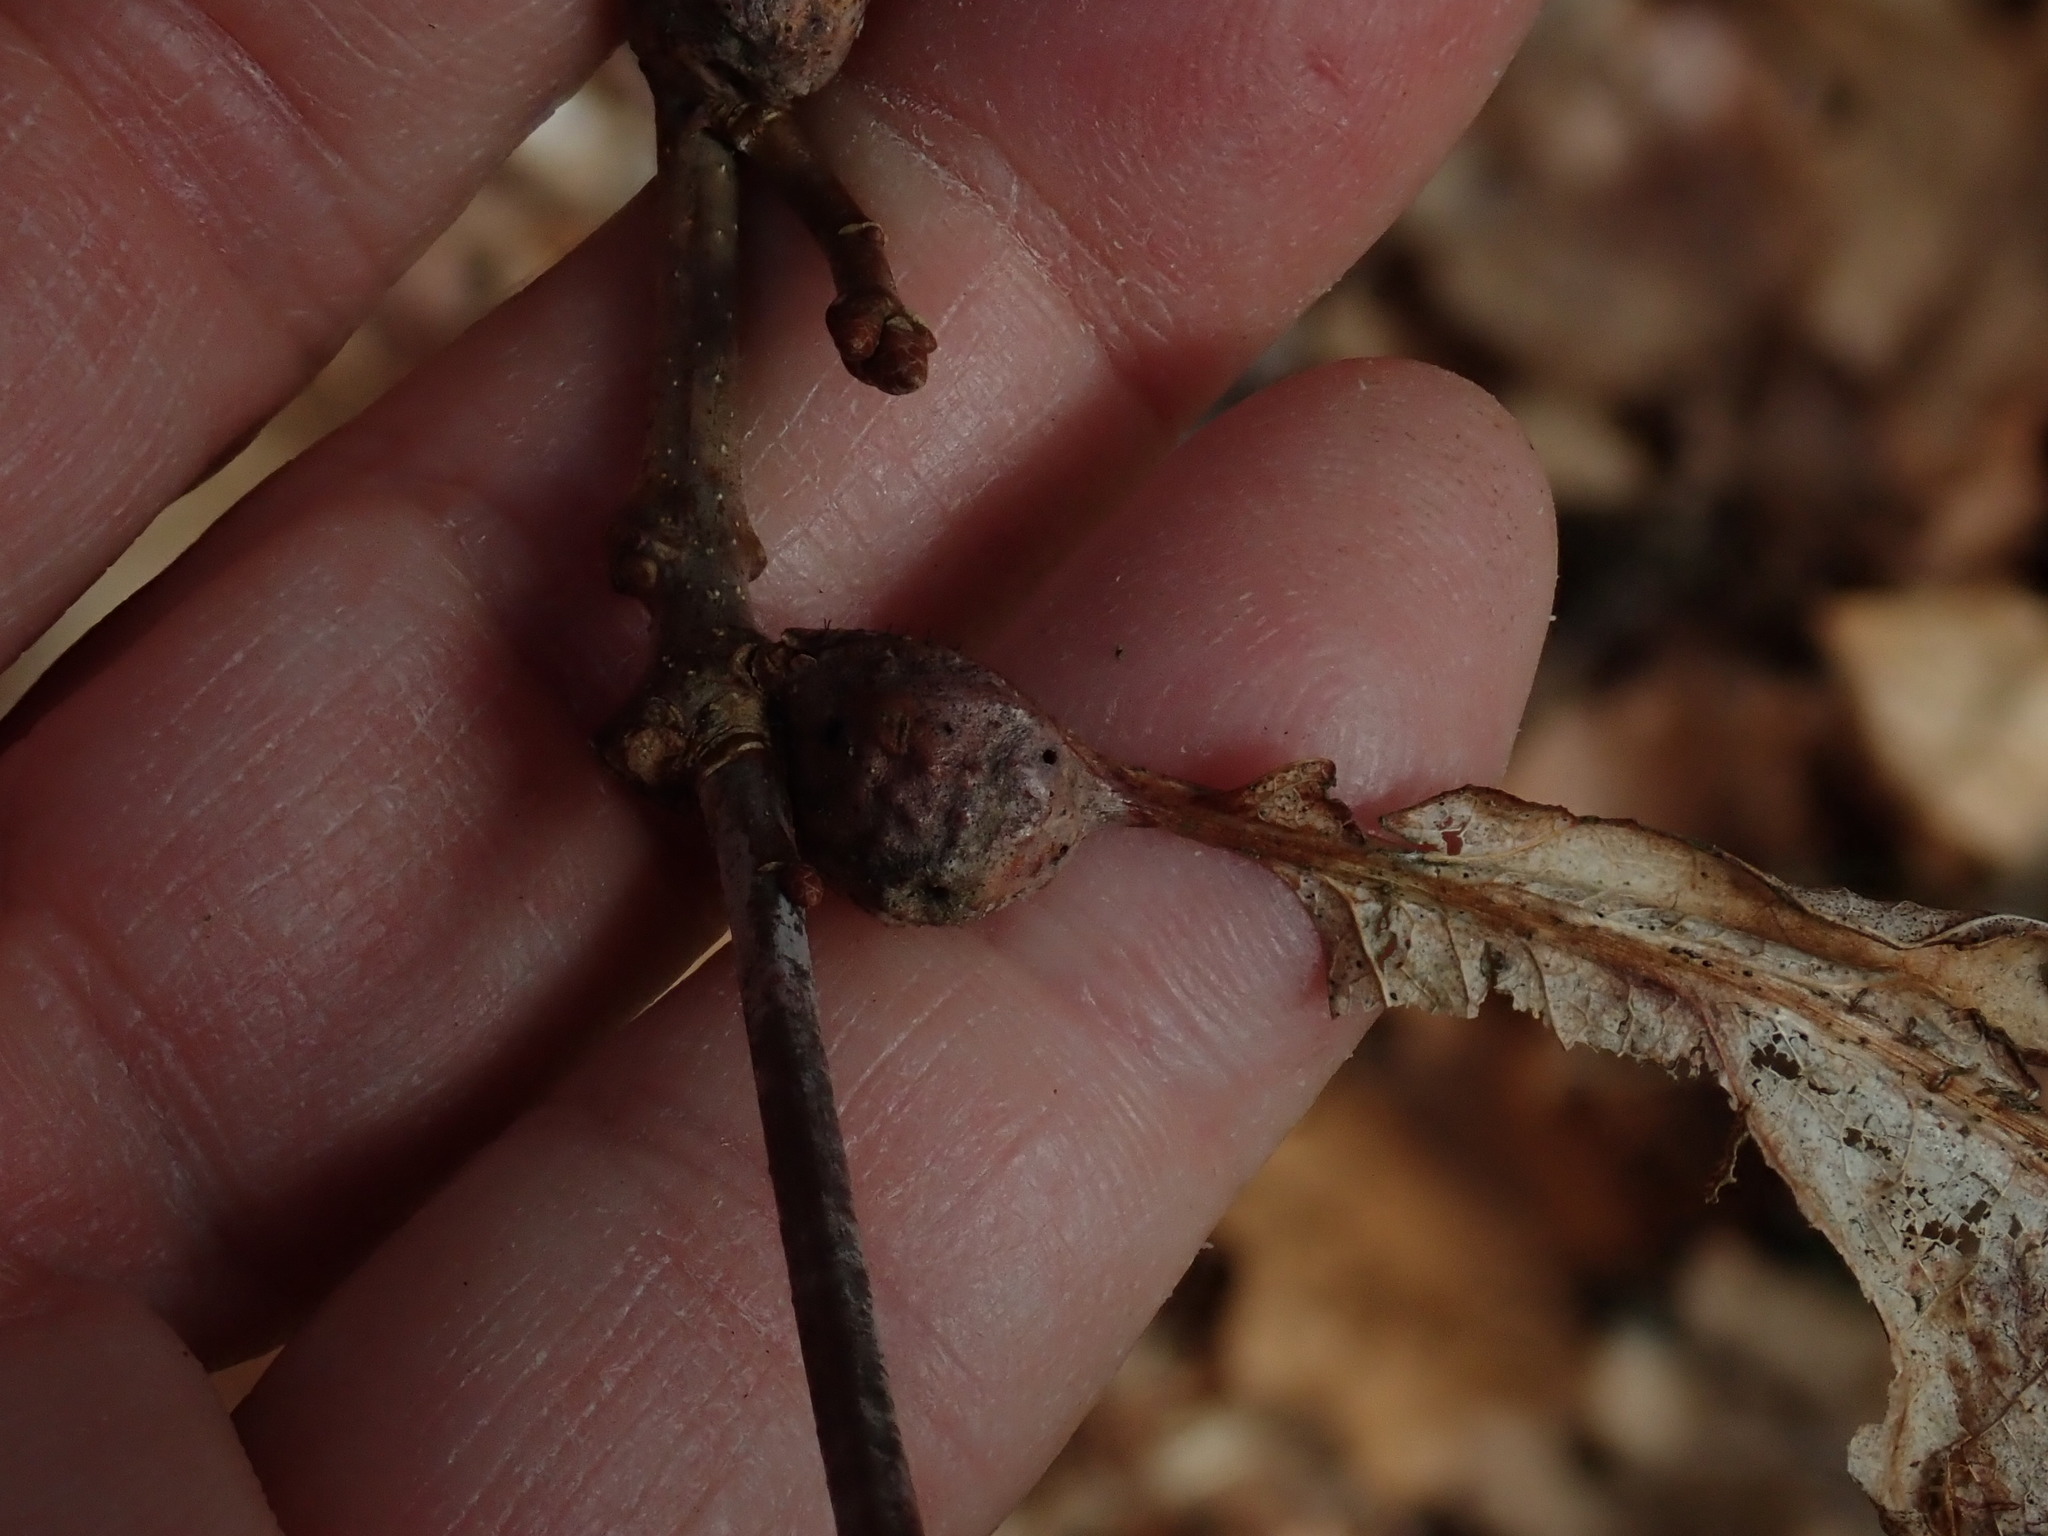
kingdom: Animalia
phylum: Arthropoda
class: Insecta
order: Hymenoptera
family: Cynipidae
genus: Andricus
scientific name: Andricus
